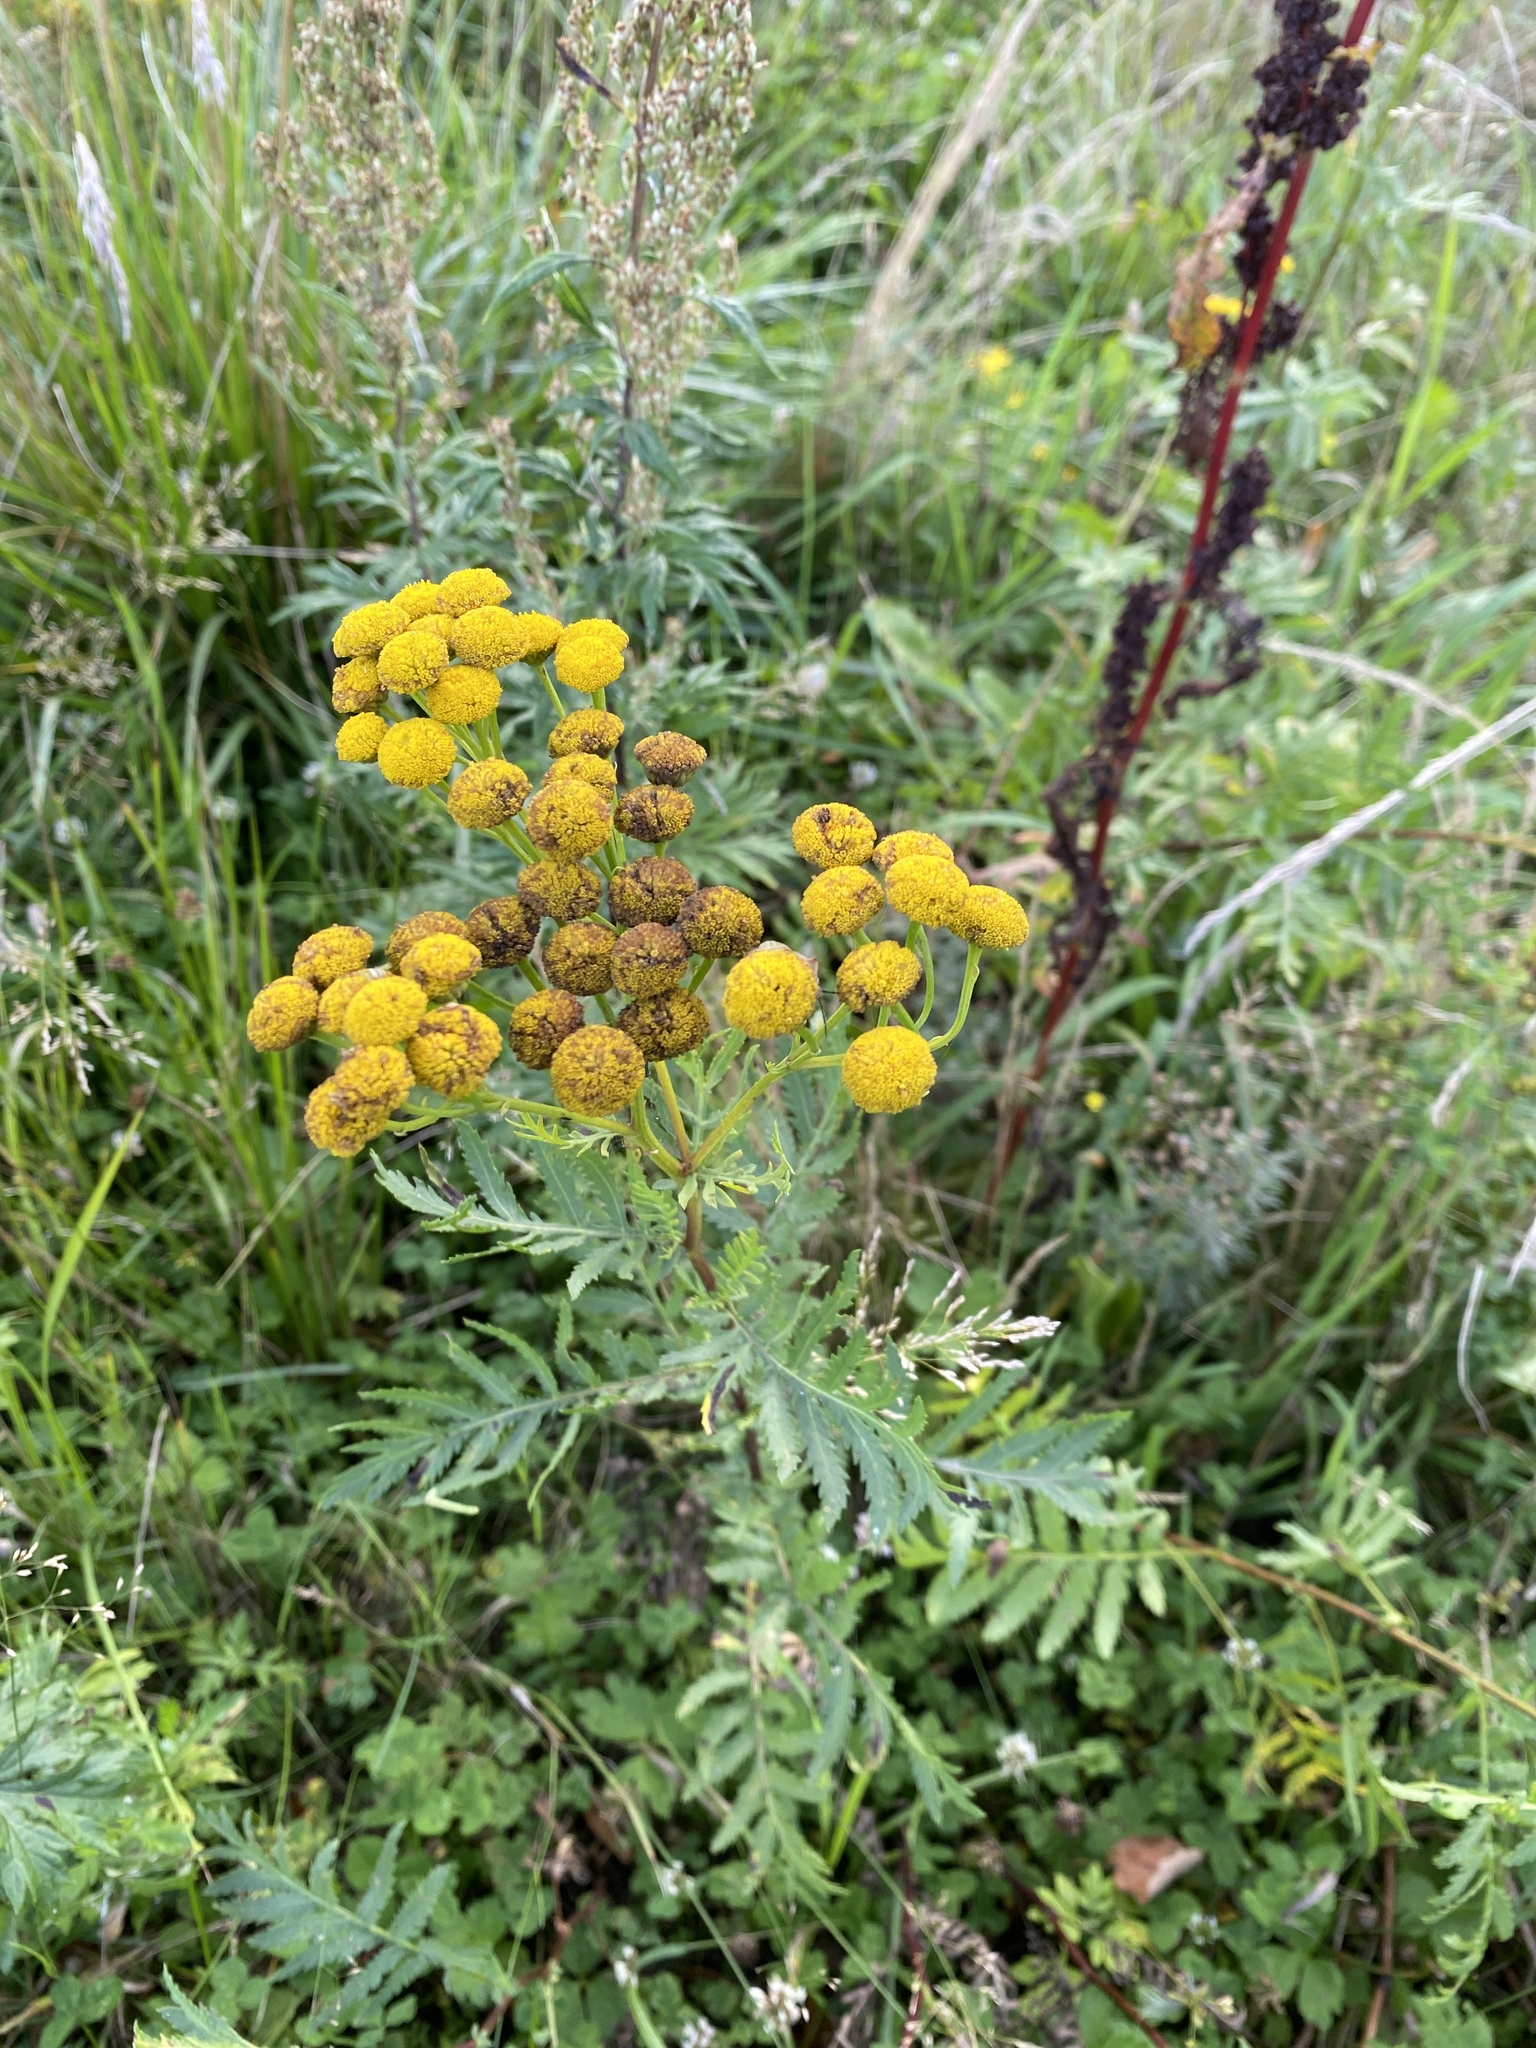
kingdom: Plantae
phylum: Tracheophyta
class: Magnoliopsida
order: Asterales
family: Asteraceae
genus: Tanacetum
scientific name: Tanacetum vulgare
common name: Common tansy
